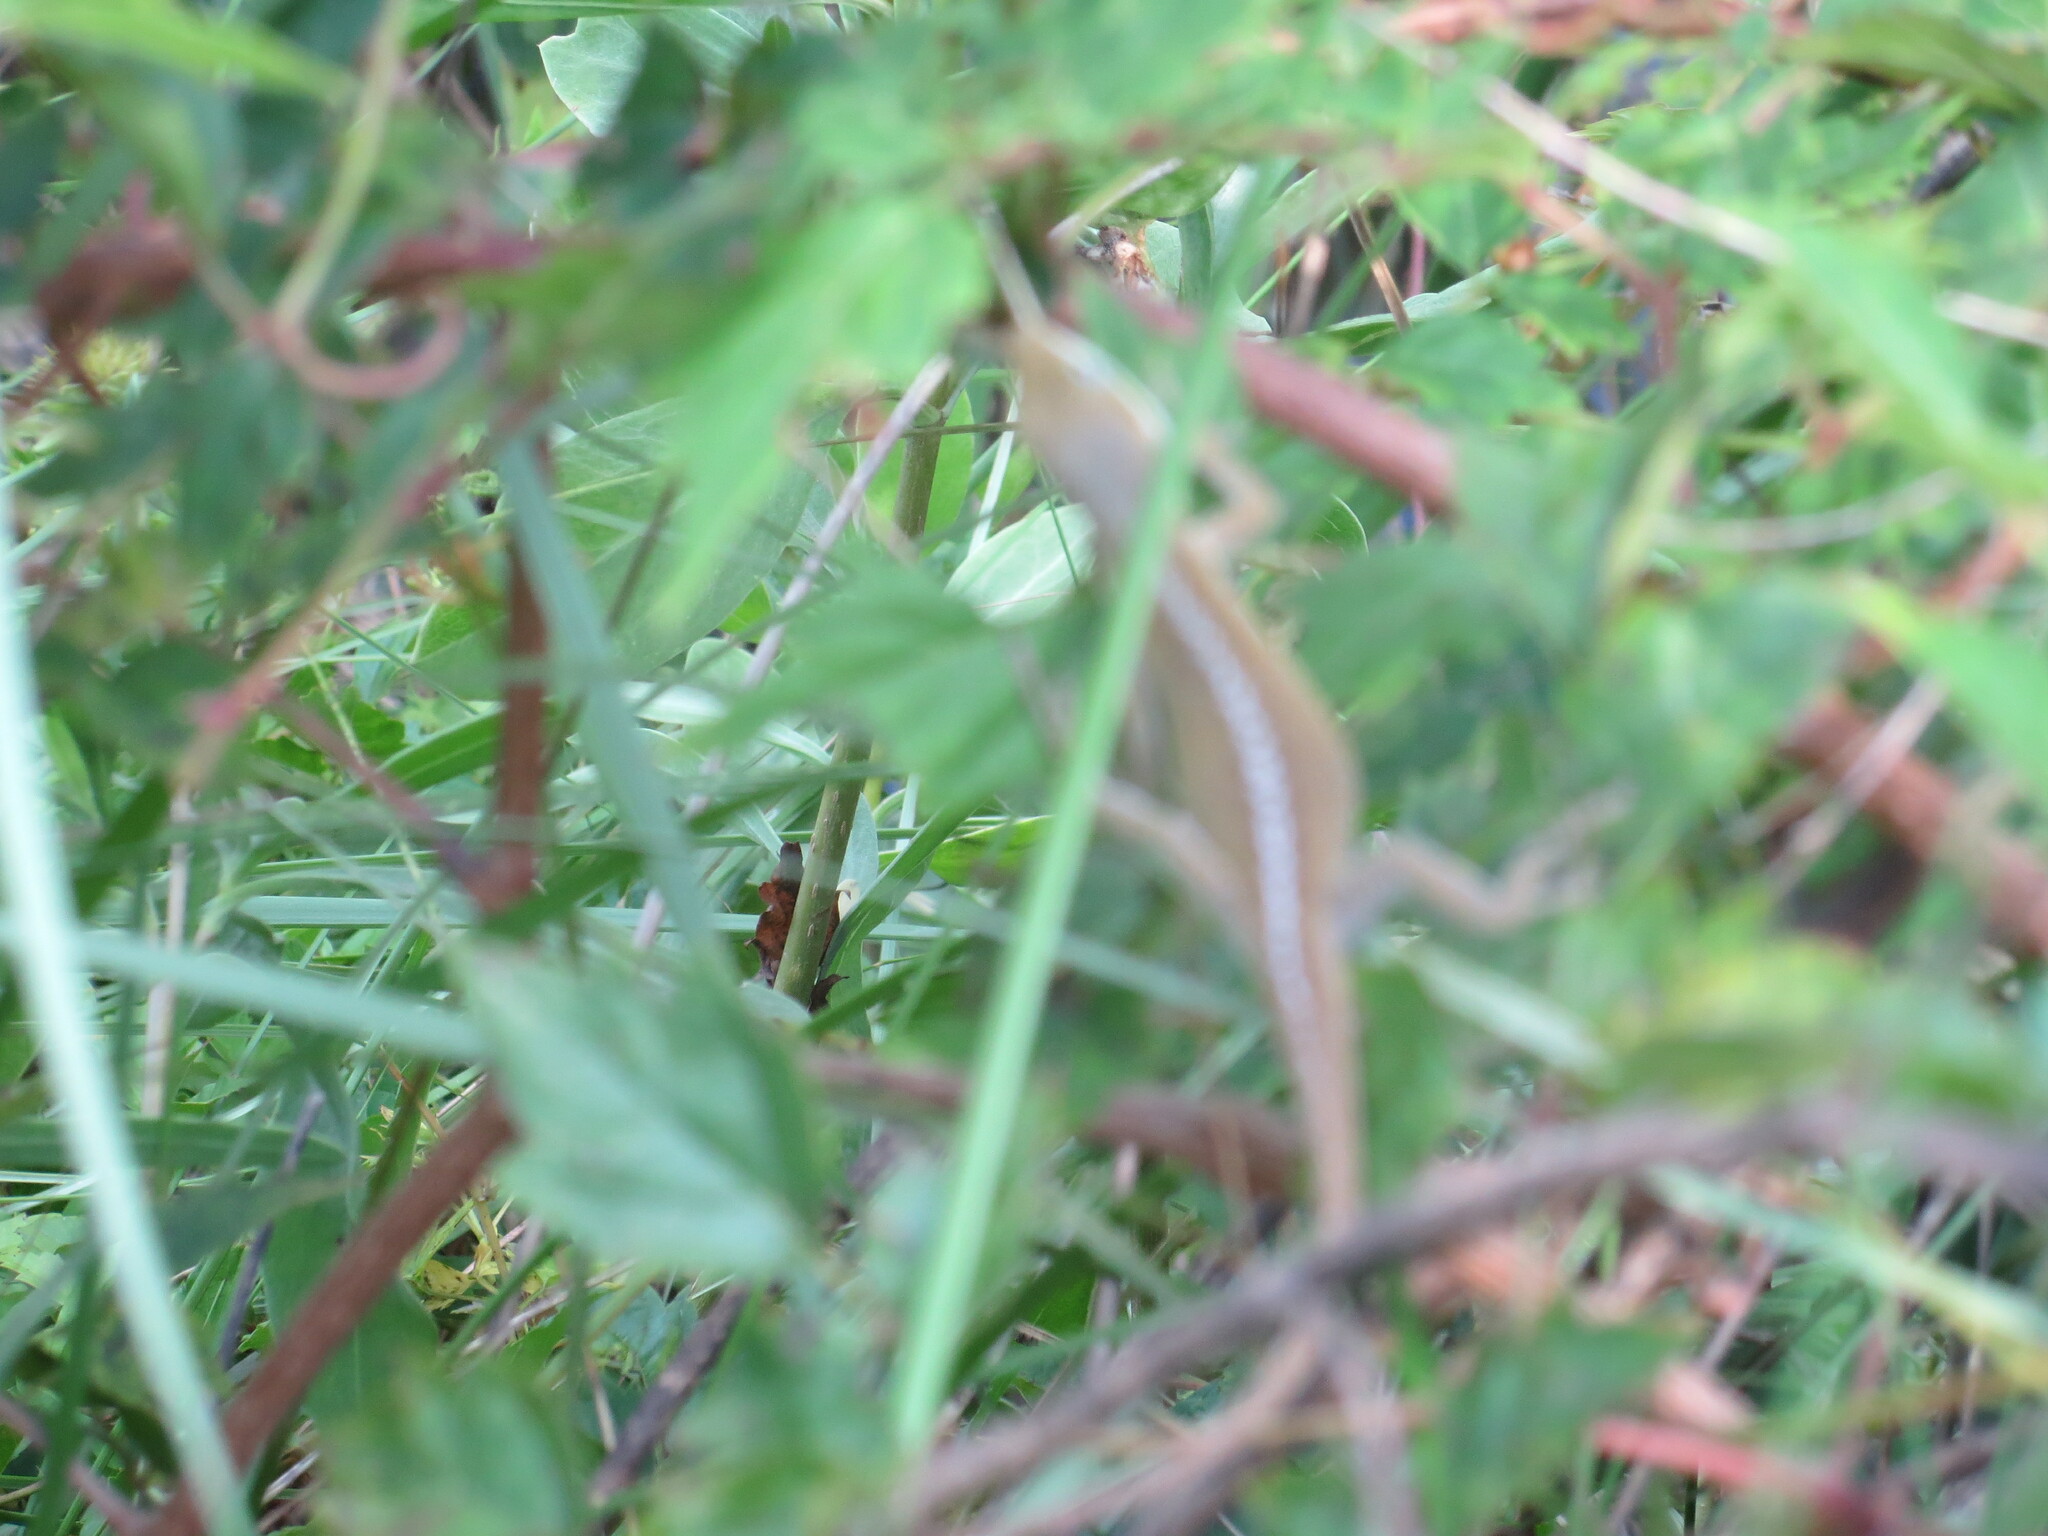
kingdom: Animalia
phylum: Chordata
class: Squamata
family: Dactyloidae
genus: Anolis
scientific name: Anolis carolinensis
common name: Green anole
